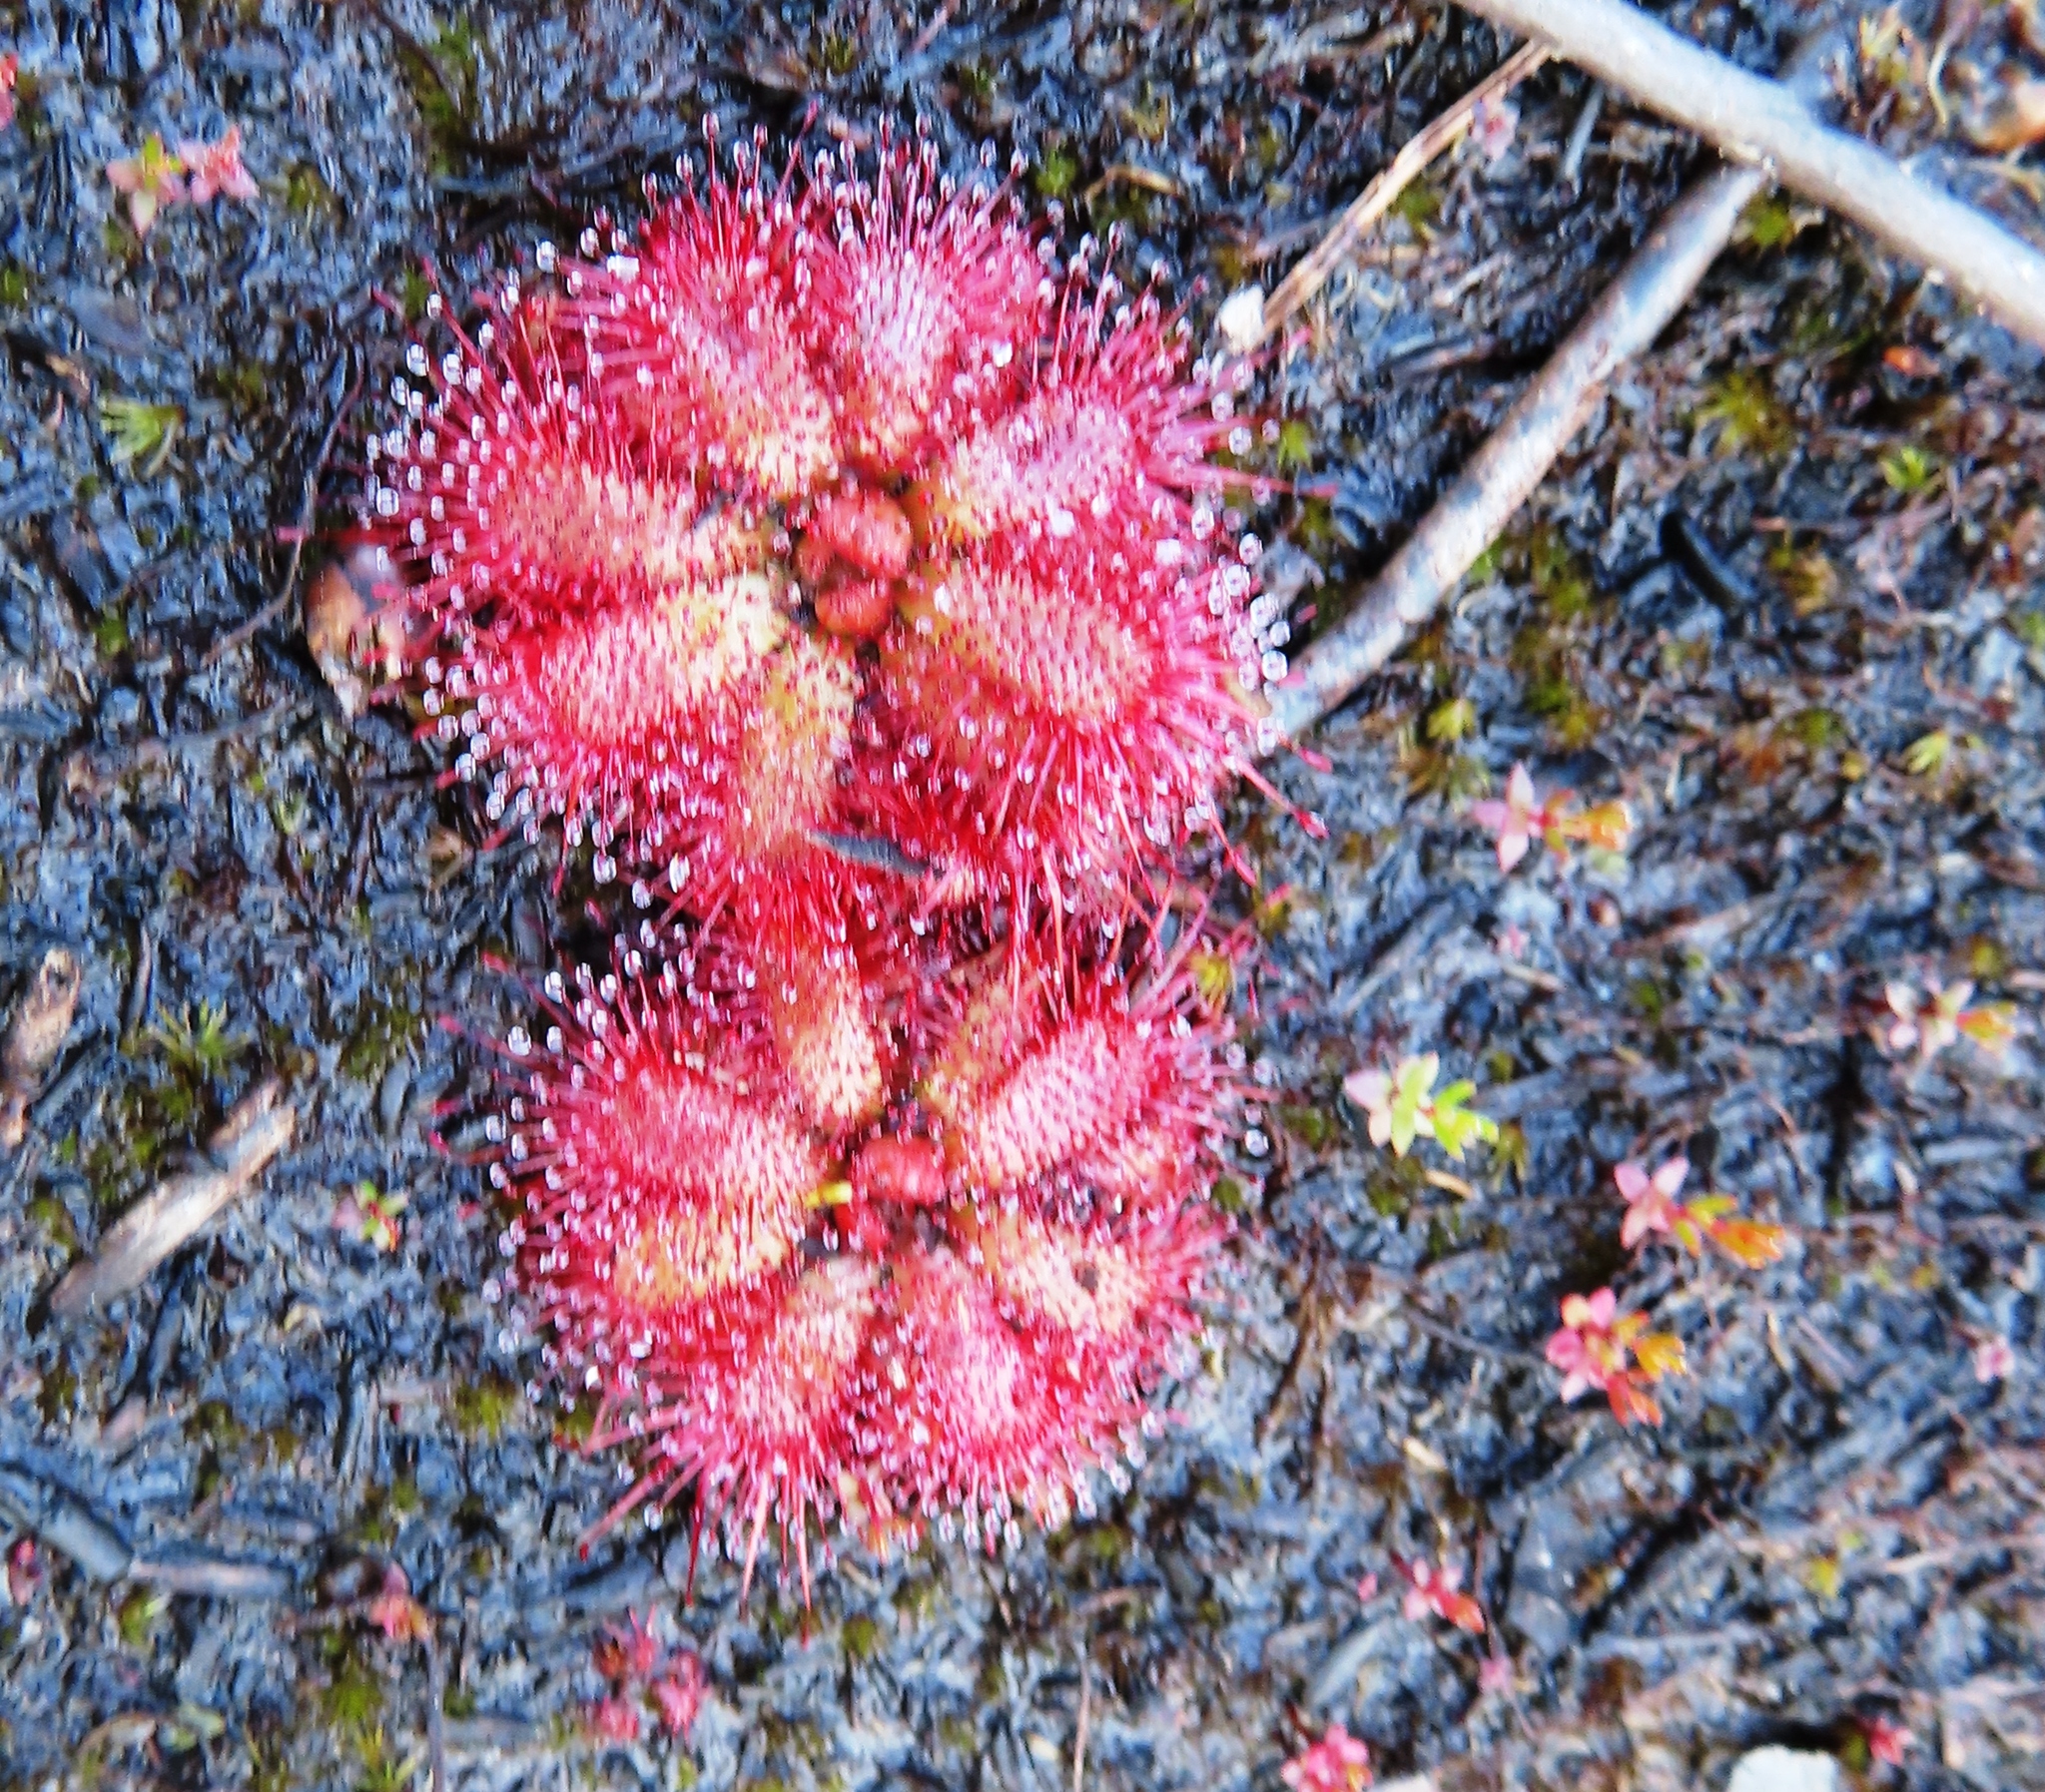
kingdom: Plantae
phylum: Tracheophyta
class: Magnoliopsida
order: Caryophyllales
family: Droseraceae
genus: Drosera
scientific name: Drosera cuneifolia
